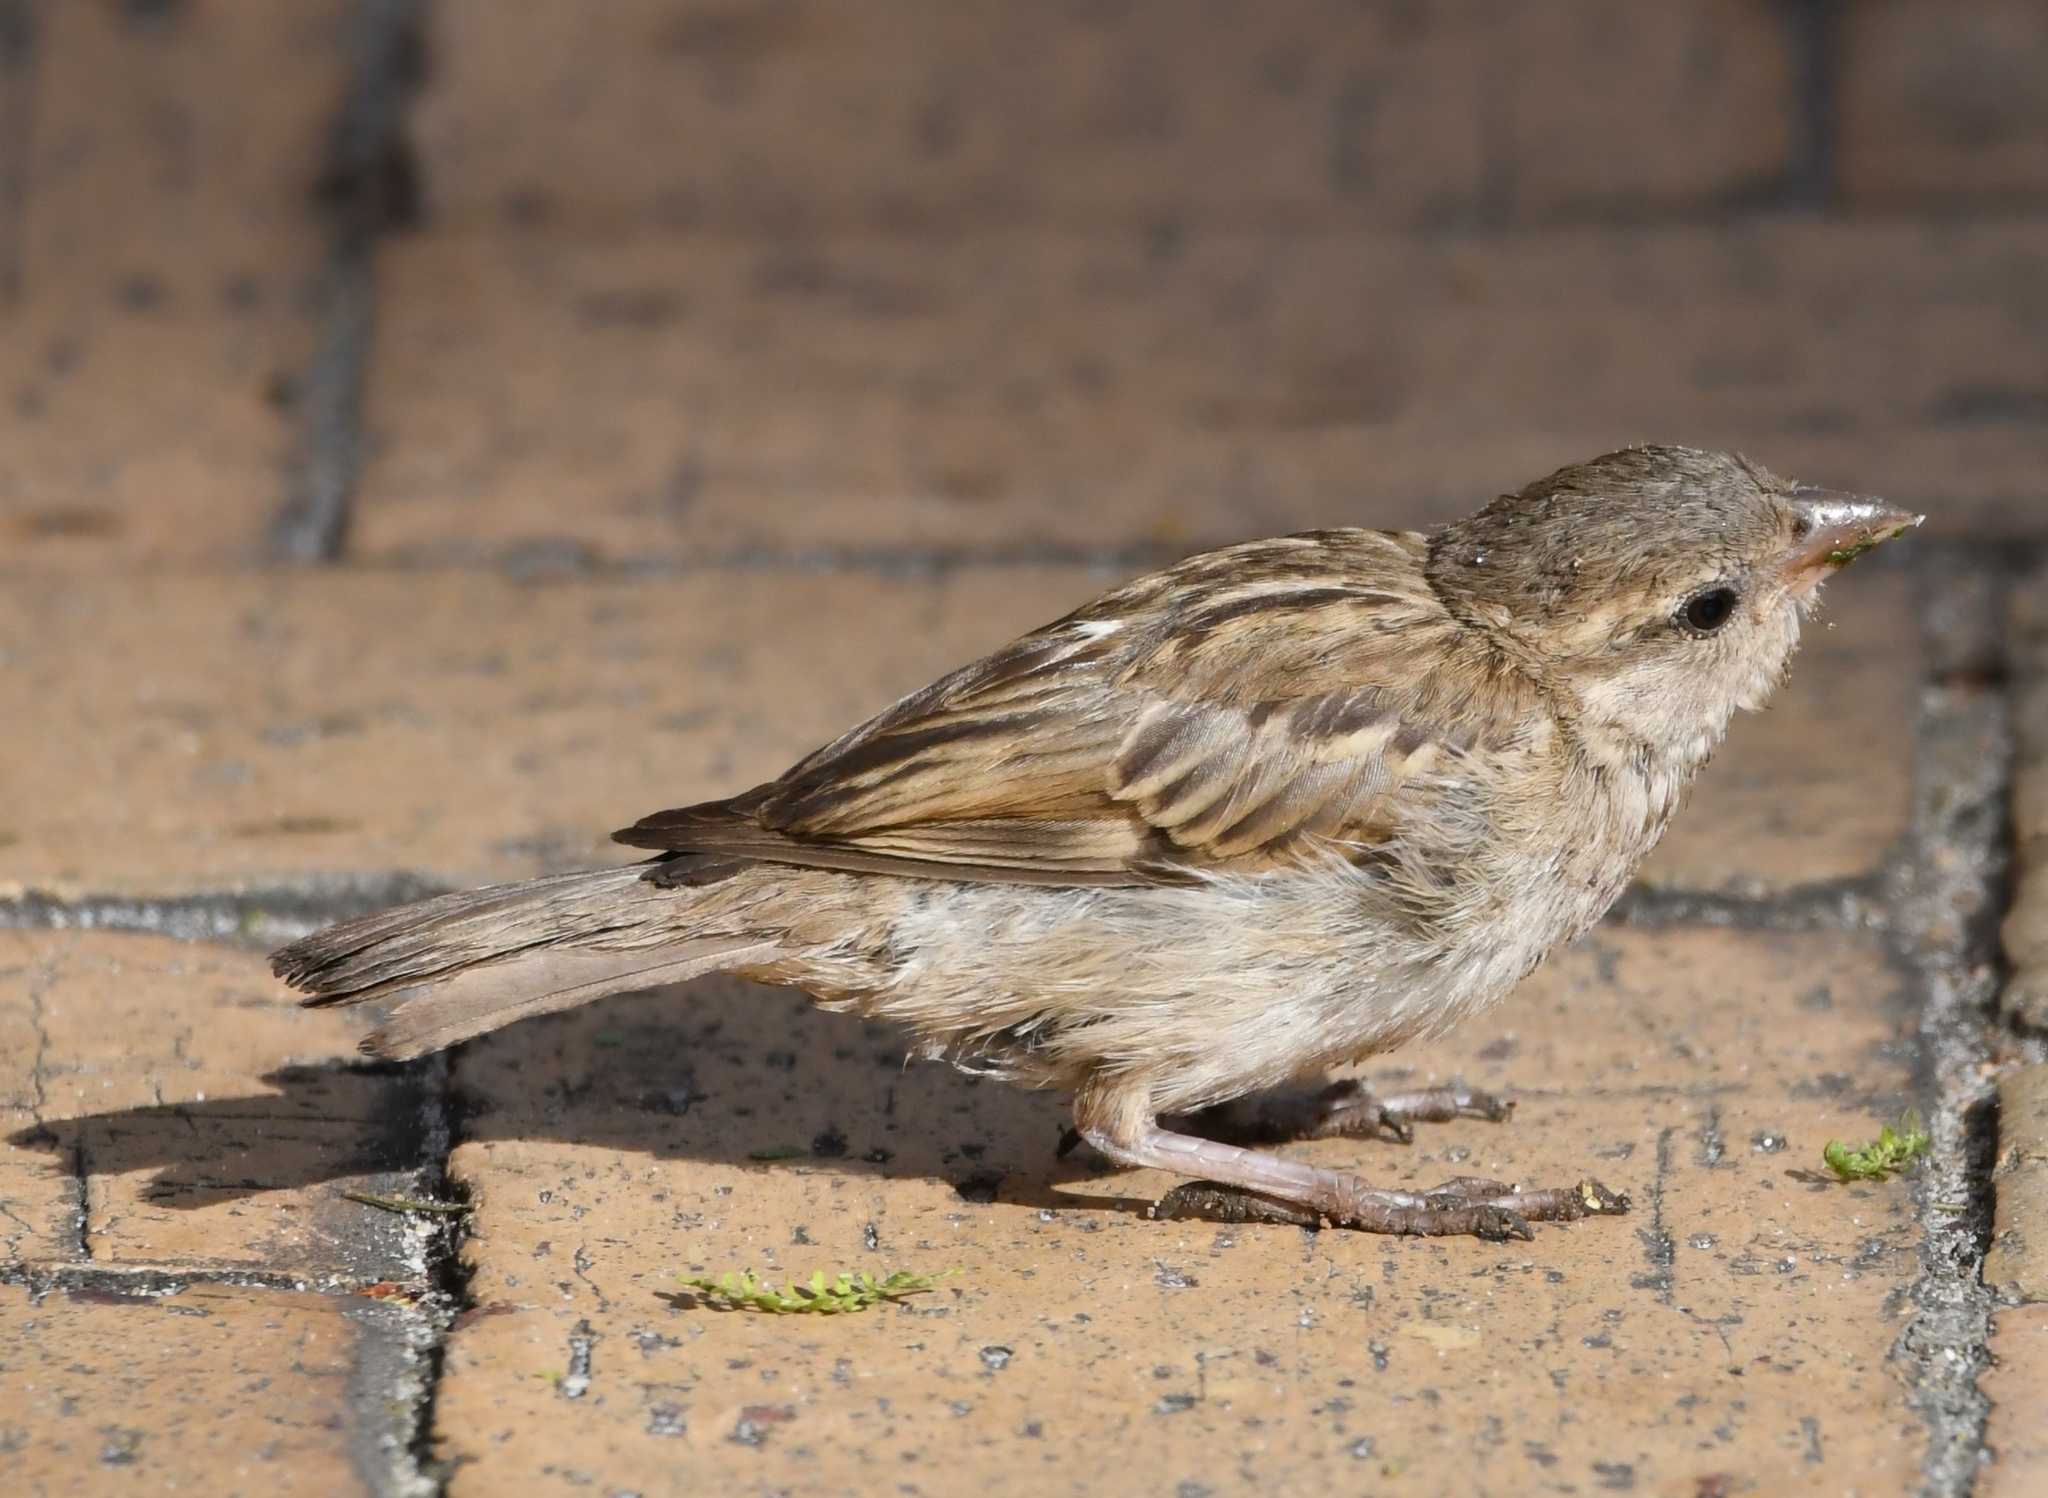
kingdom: Animalia
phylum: Chordata
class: Aves
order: Passeriformes
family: Passeridae
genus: Passer
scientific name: Passer domesticus
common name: House sparrow
